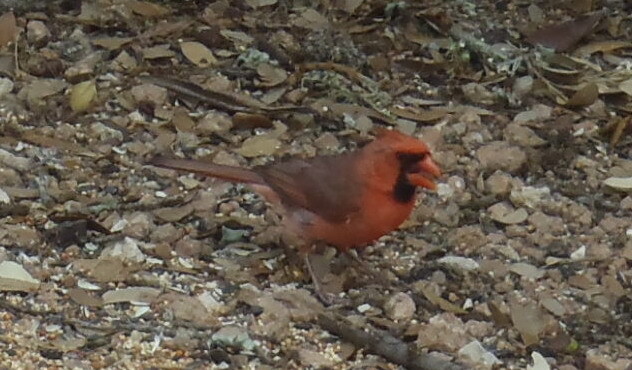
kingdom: Animalia
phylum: Chordata
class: Aves
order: Passeriformes
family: Cardinalidae
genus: Cardinalis
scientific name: Cardinalis cardinalis
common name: Northern cardinal
